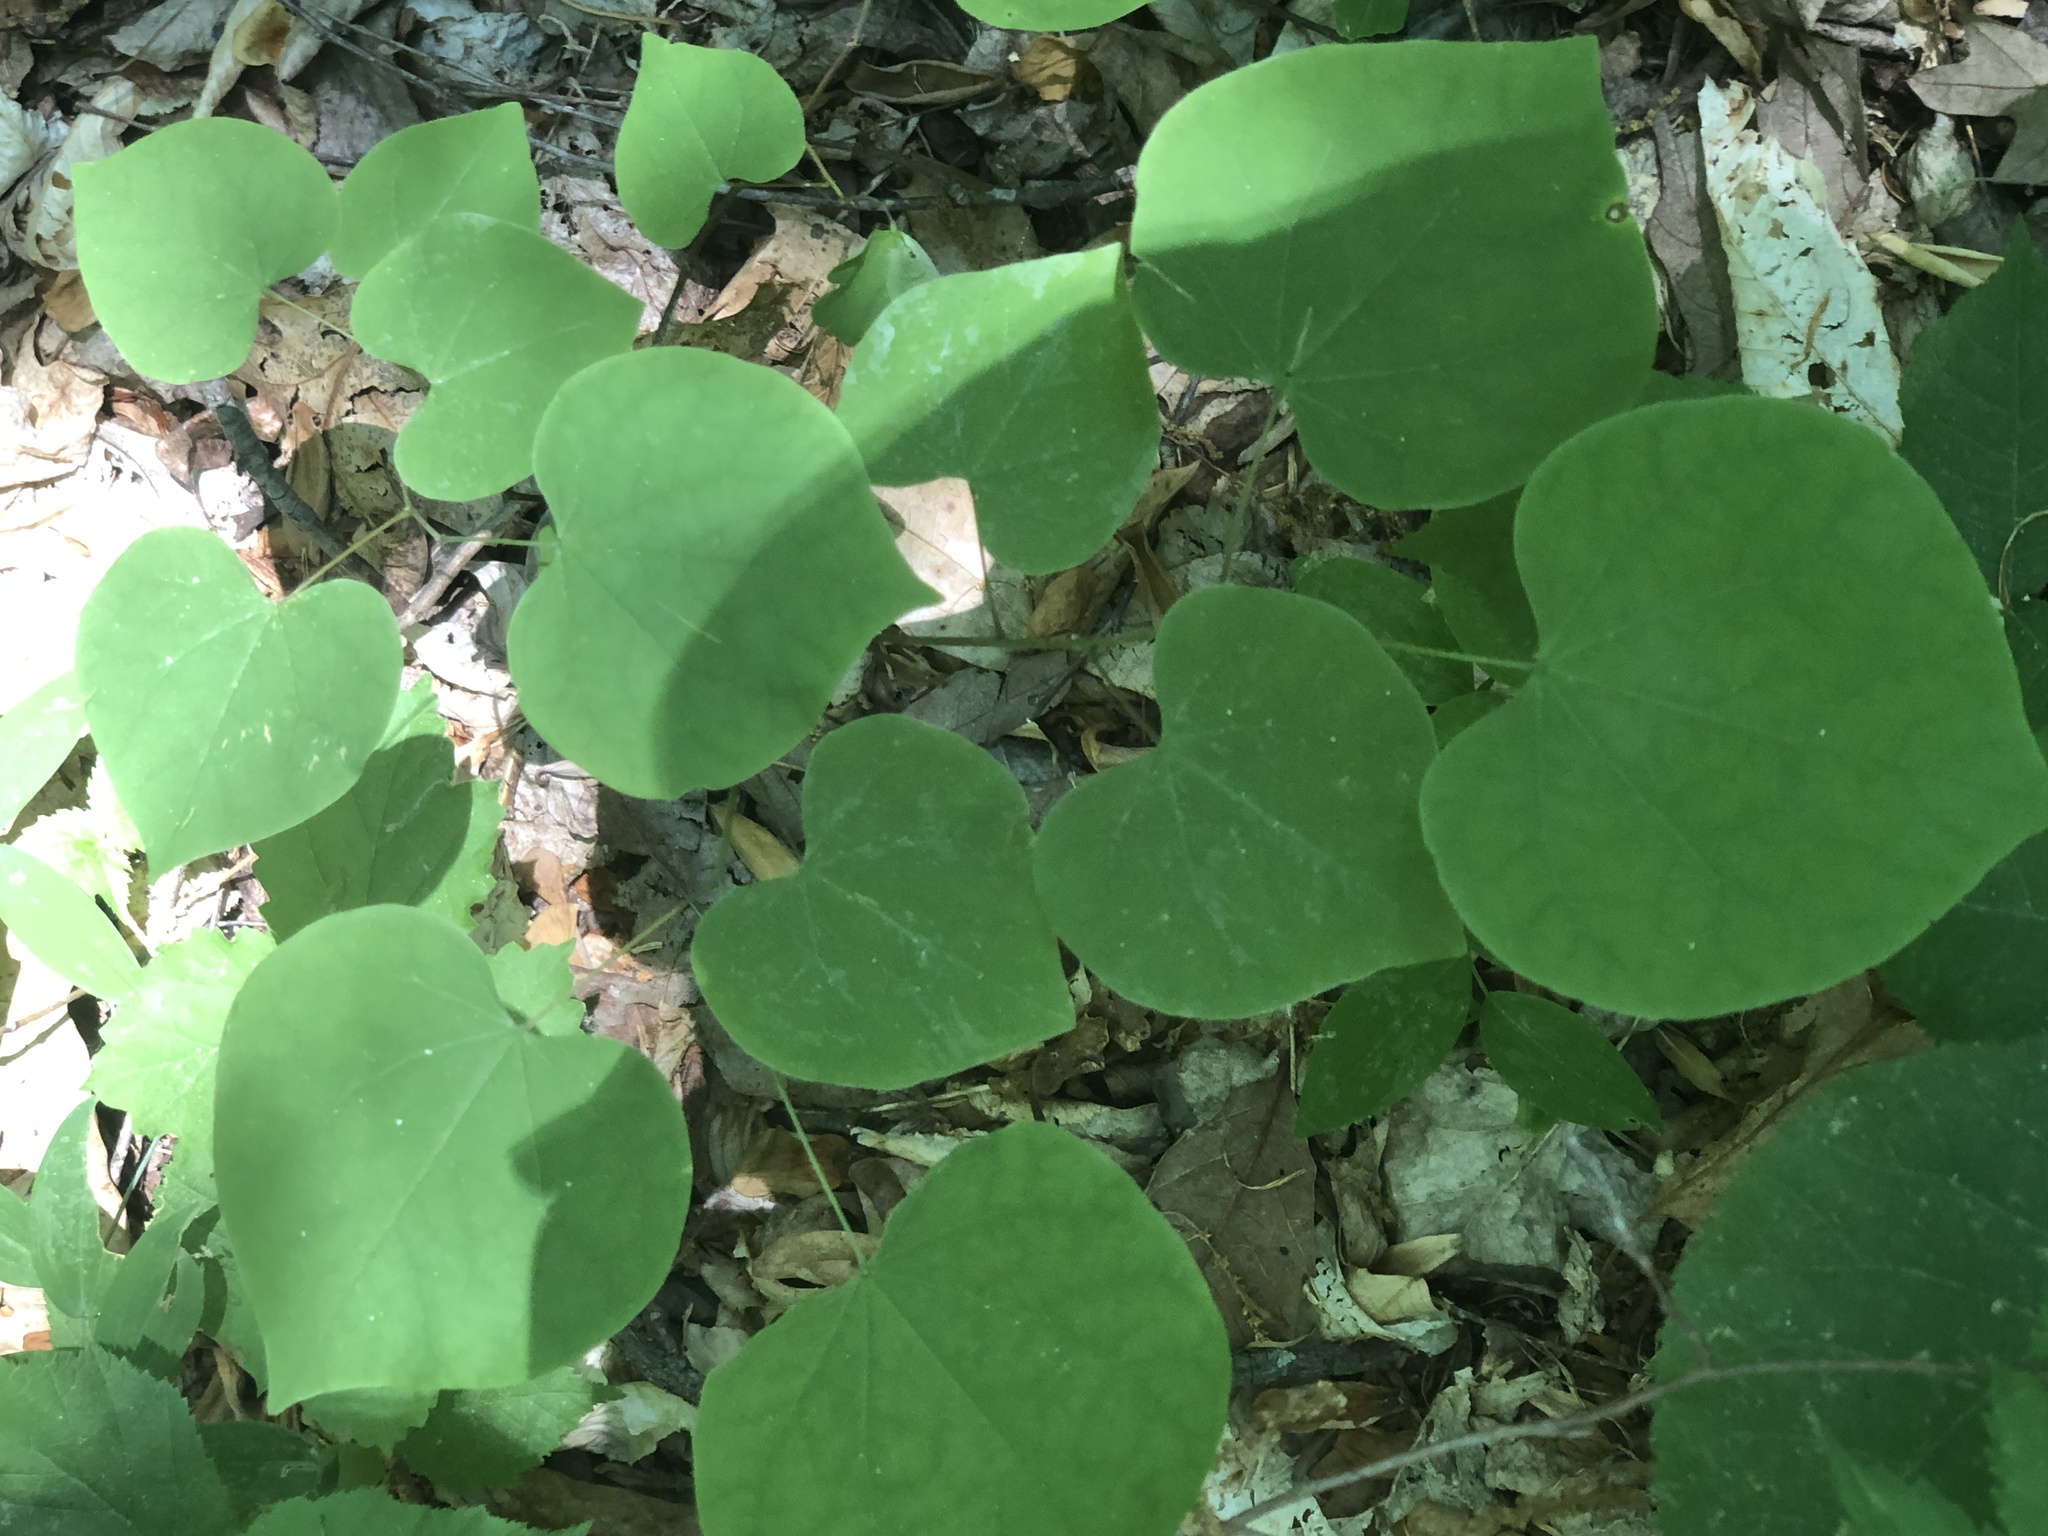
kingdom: Plantae
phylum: Tracheophyta
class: Magnoliopsida
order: Fabales
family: Fabaceae
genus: Cercis
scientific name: Cercis canadensis
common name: Eastern redbud
